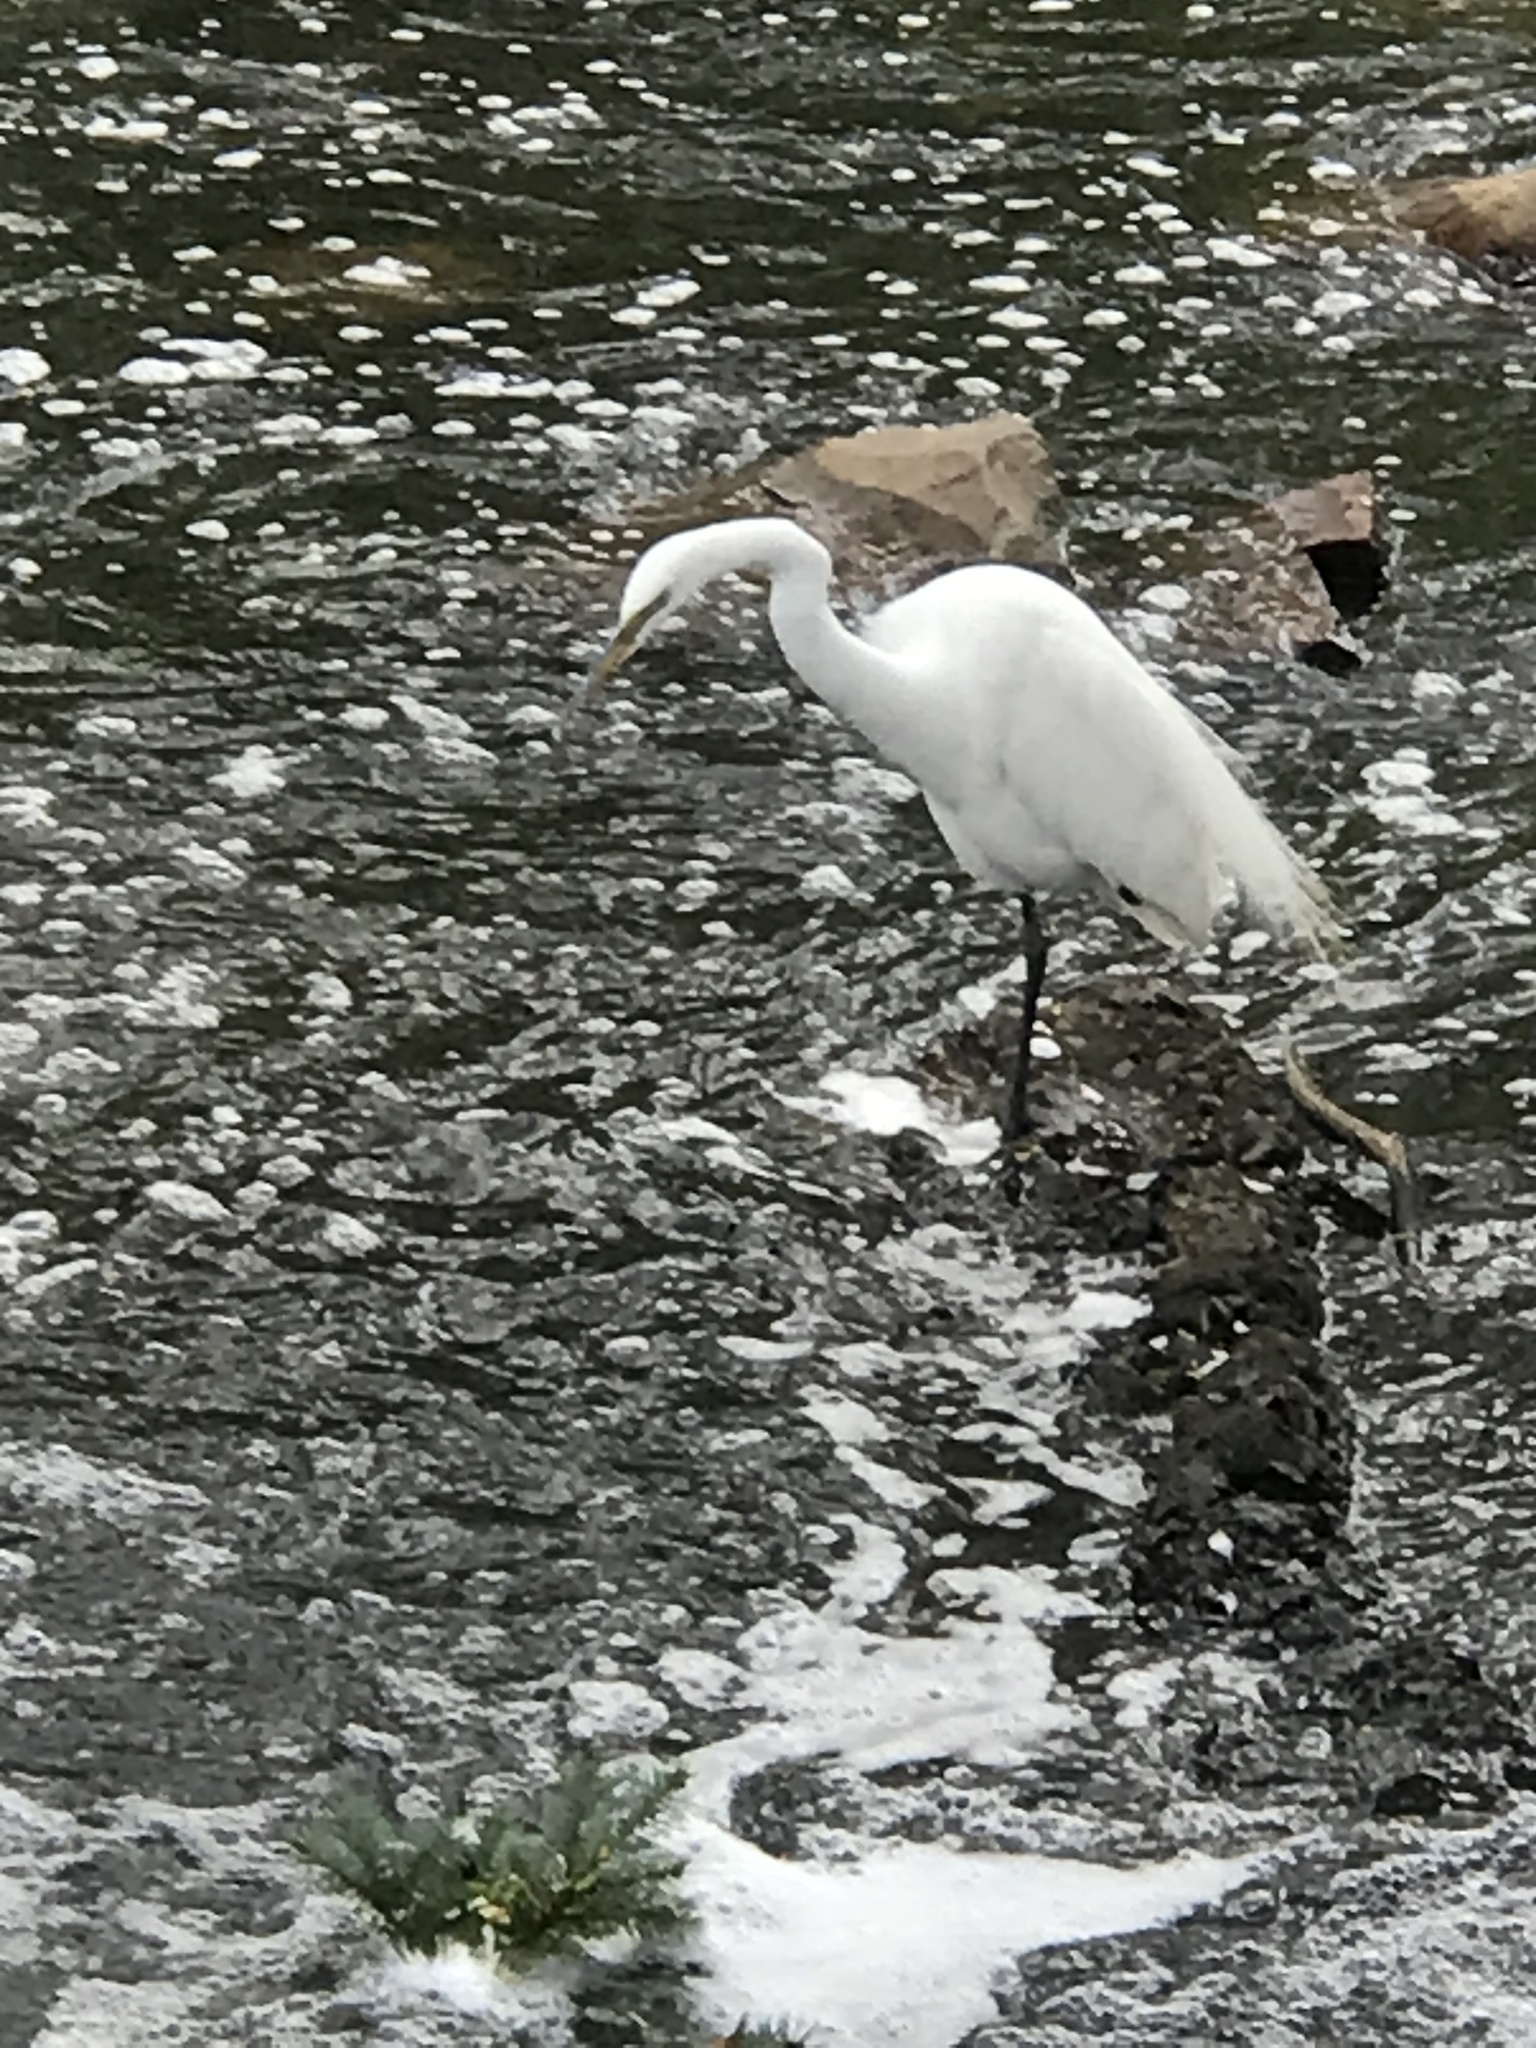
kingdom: Animalia
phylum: Chordata
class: Aves
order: Pelecaniformes
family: Ardeidae
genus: Ardea
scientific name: Ardea alba
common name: Great egret
